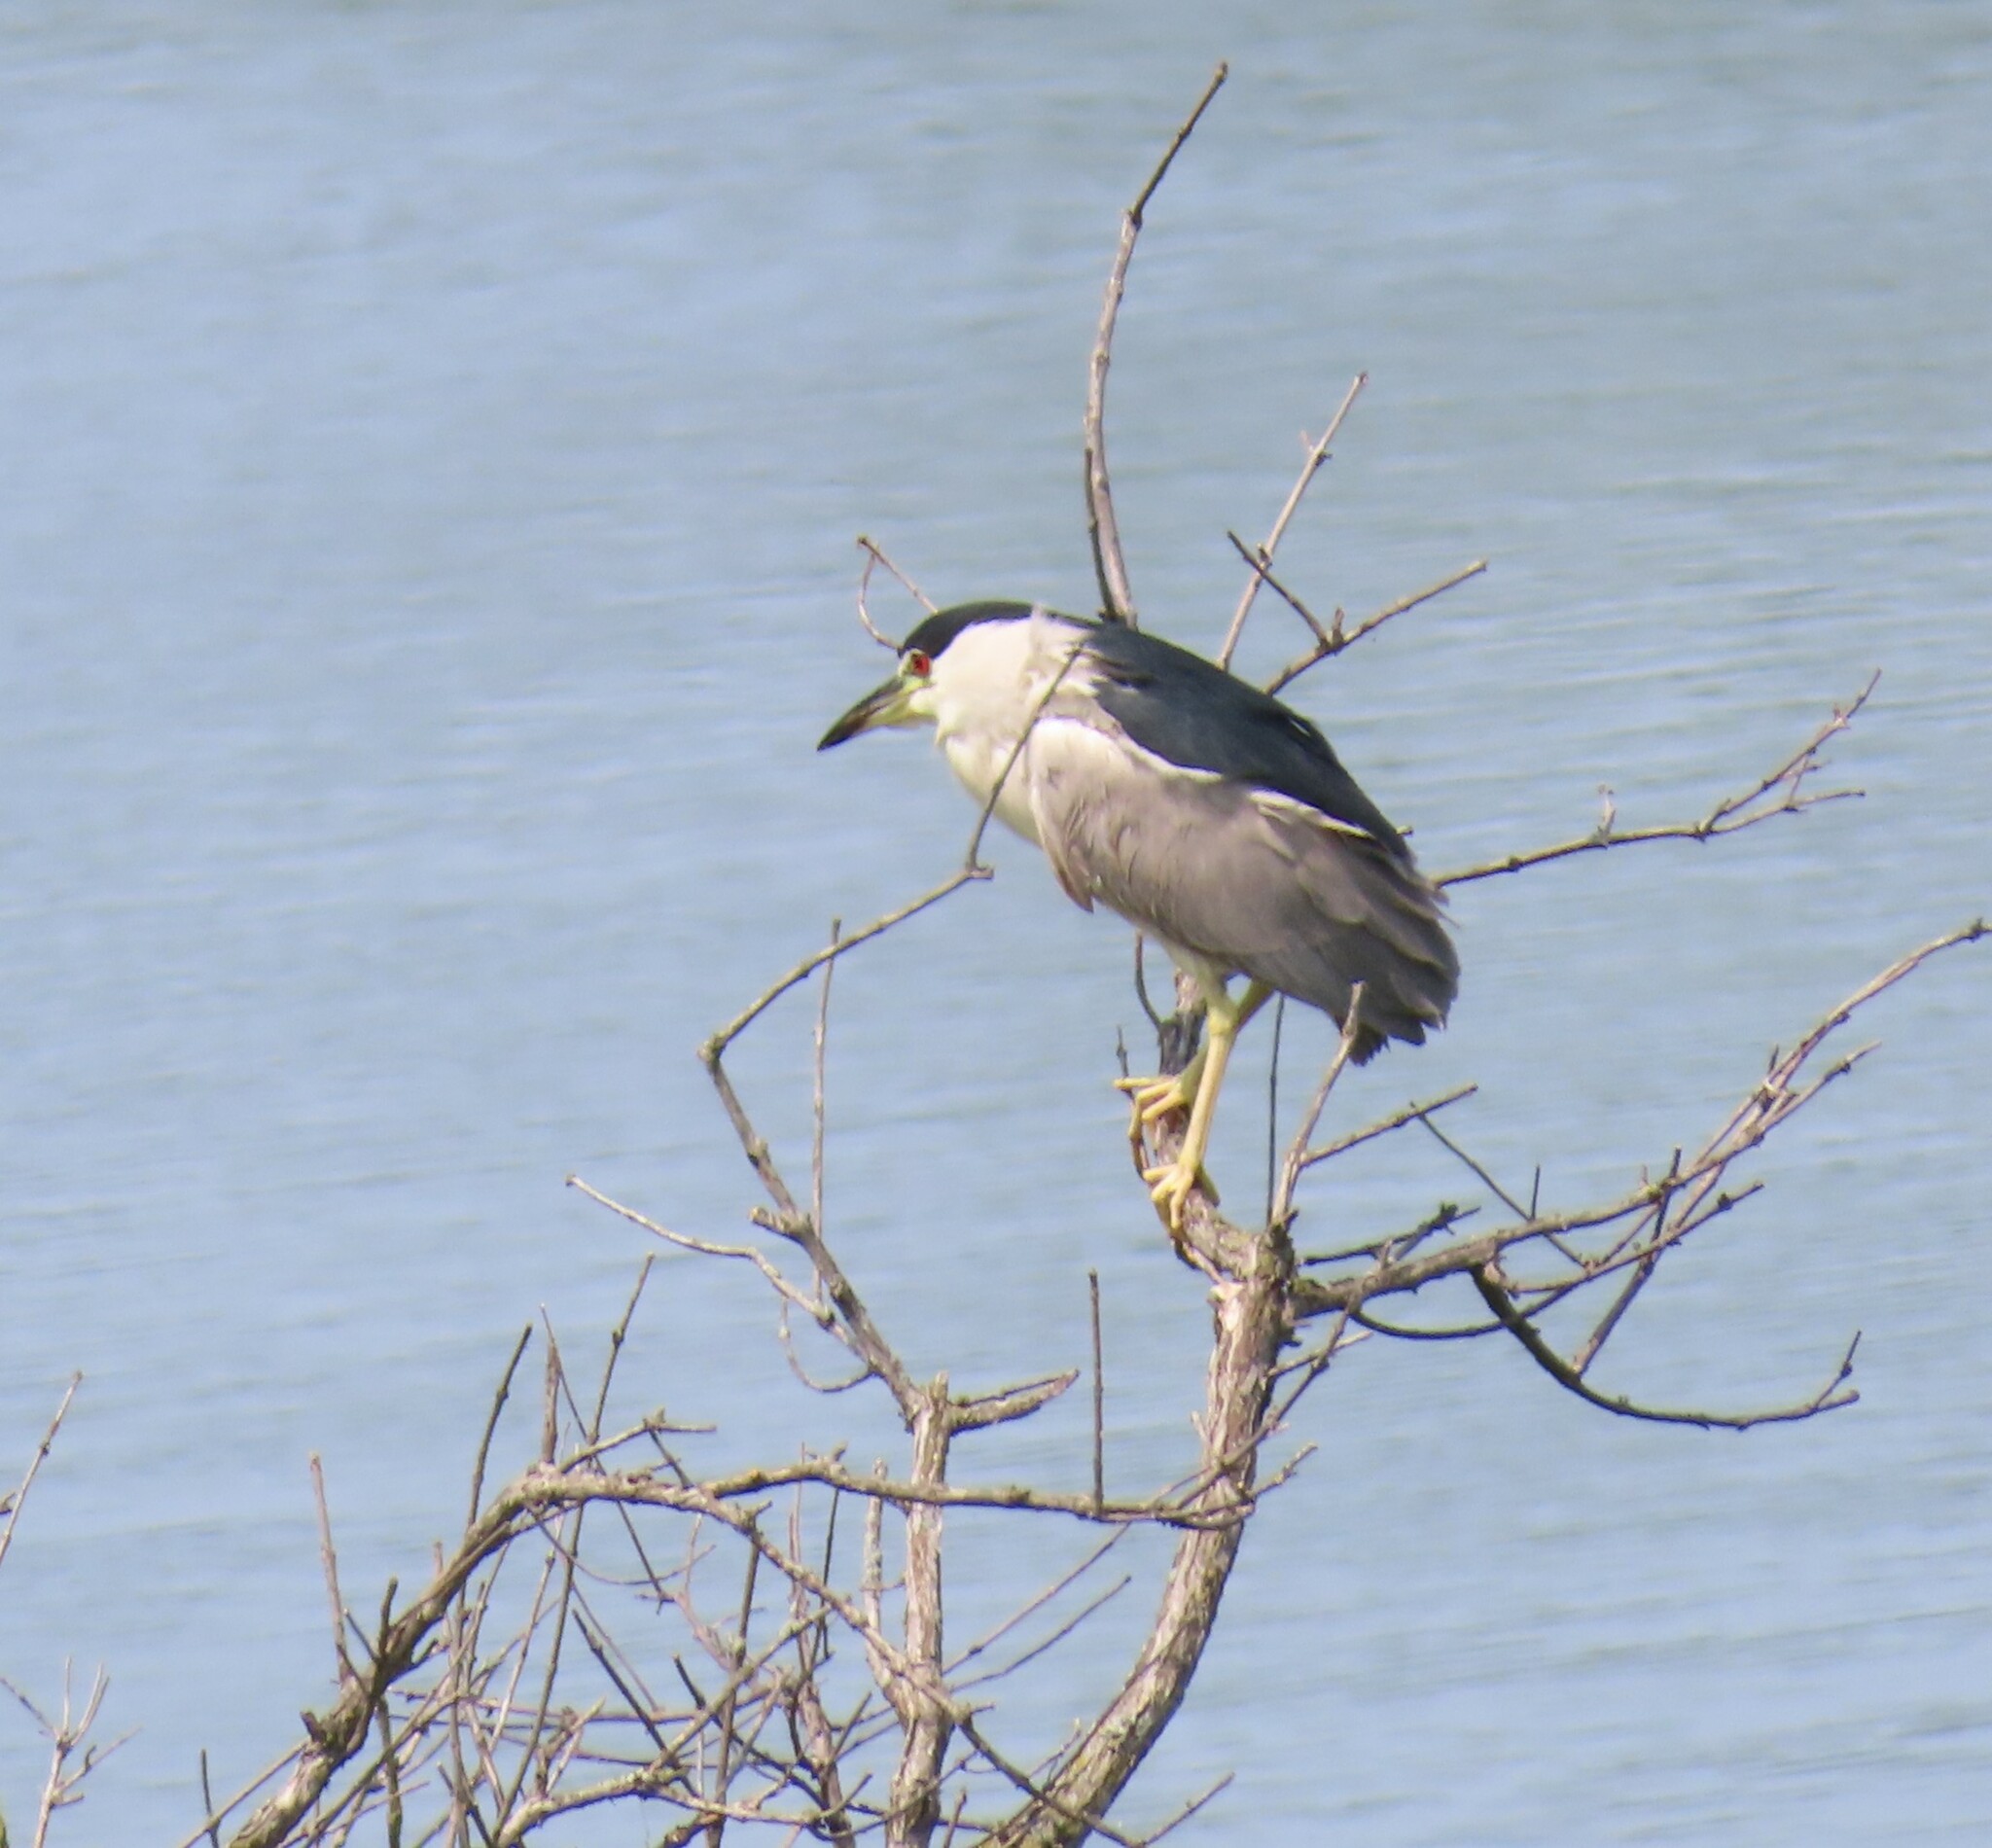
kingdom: Animalia
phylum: Chordata
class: Aves
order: Pelecaniformes
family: Ardeidae
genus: Nycticorax
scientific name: Nycticorax nycticorax
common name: Black-crowned night heron
